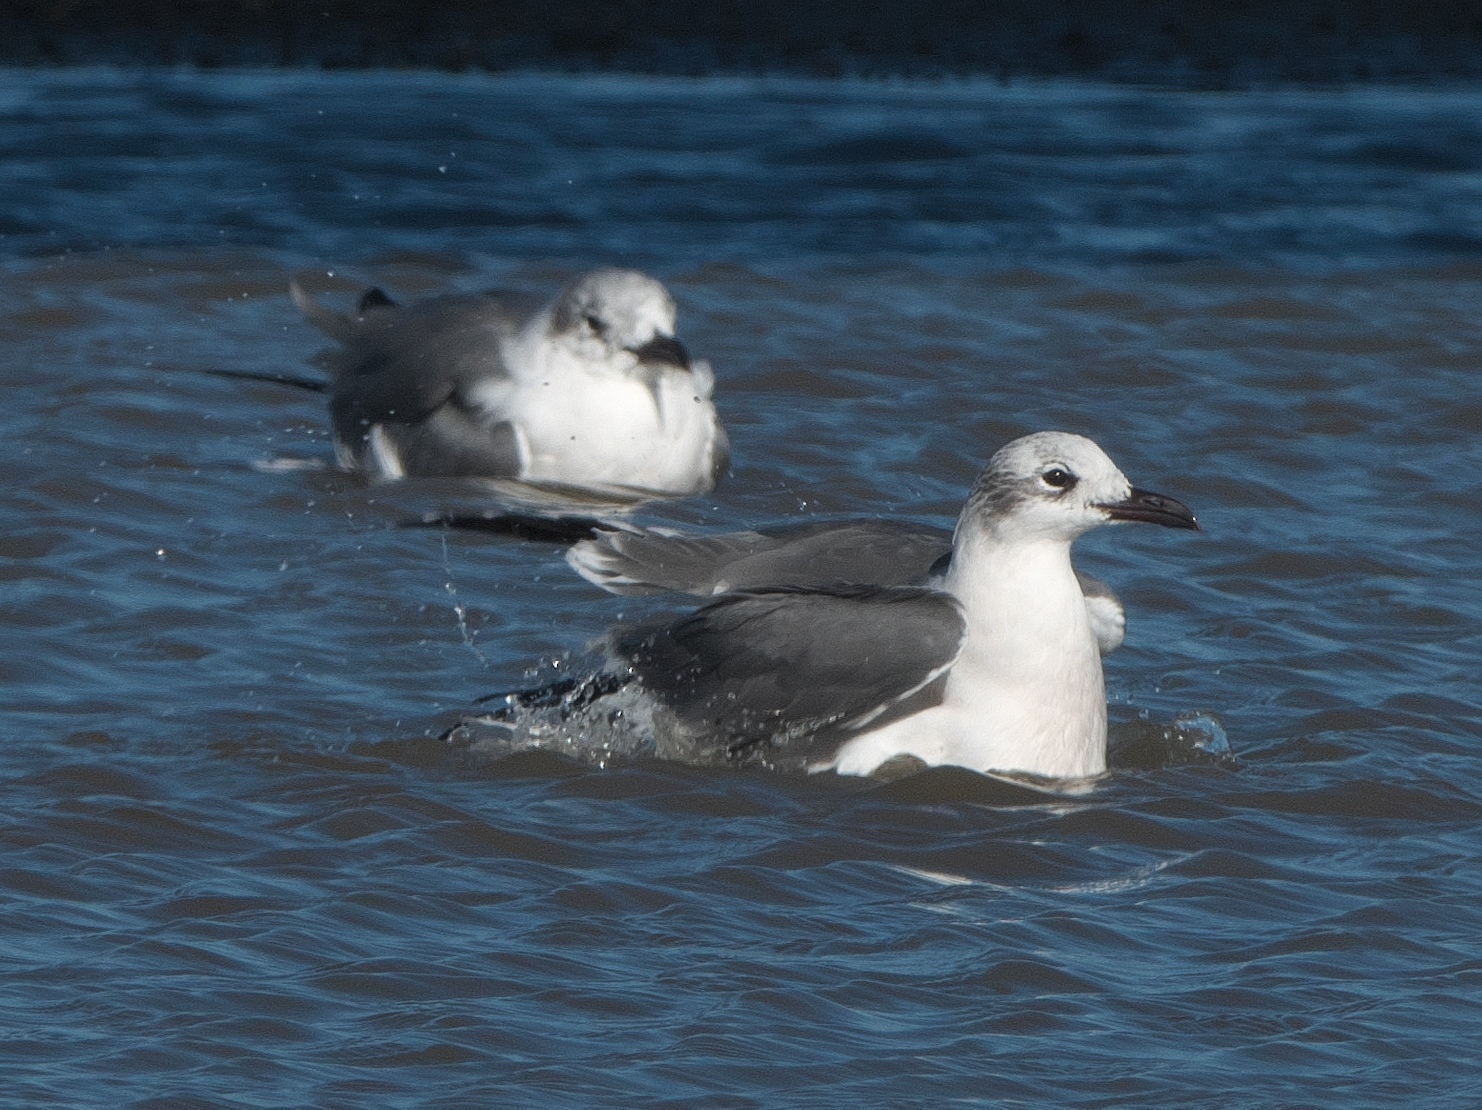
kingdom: Animalia
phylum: Chordata
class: Aves
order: Charadriiformes
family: Laridae
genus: Leucophaeus
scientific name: Leucophaeus atricilla
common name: Laughing gull
